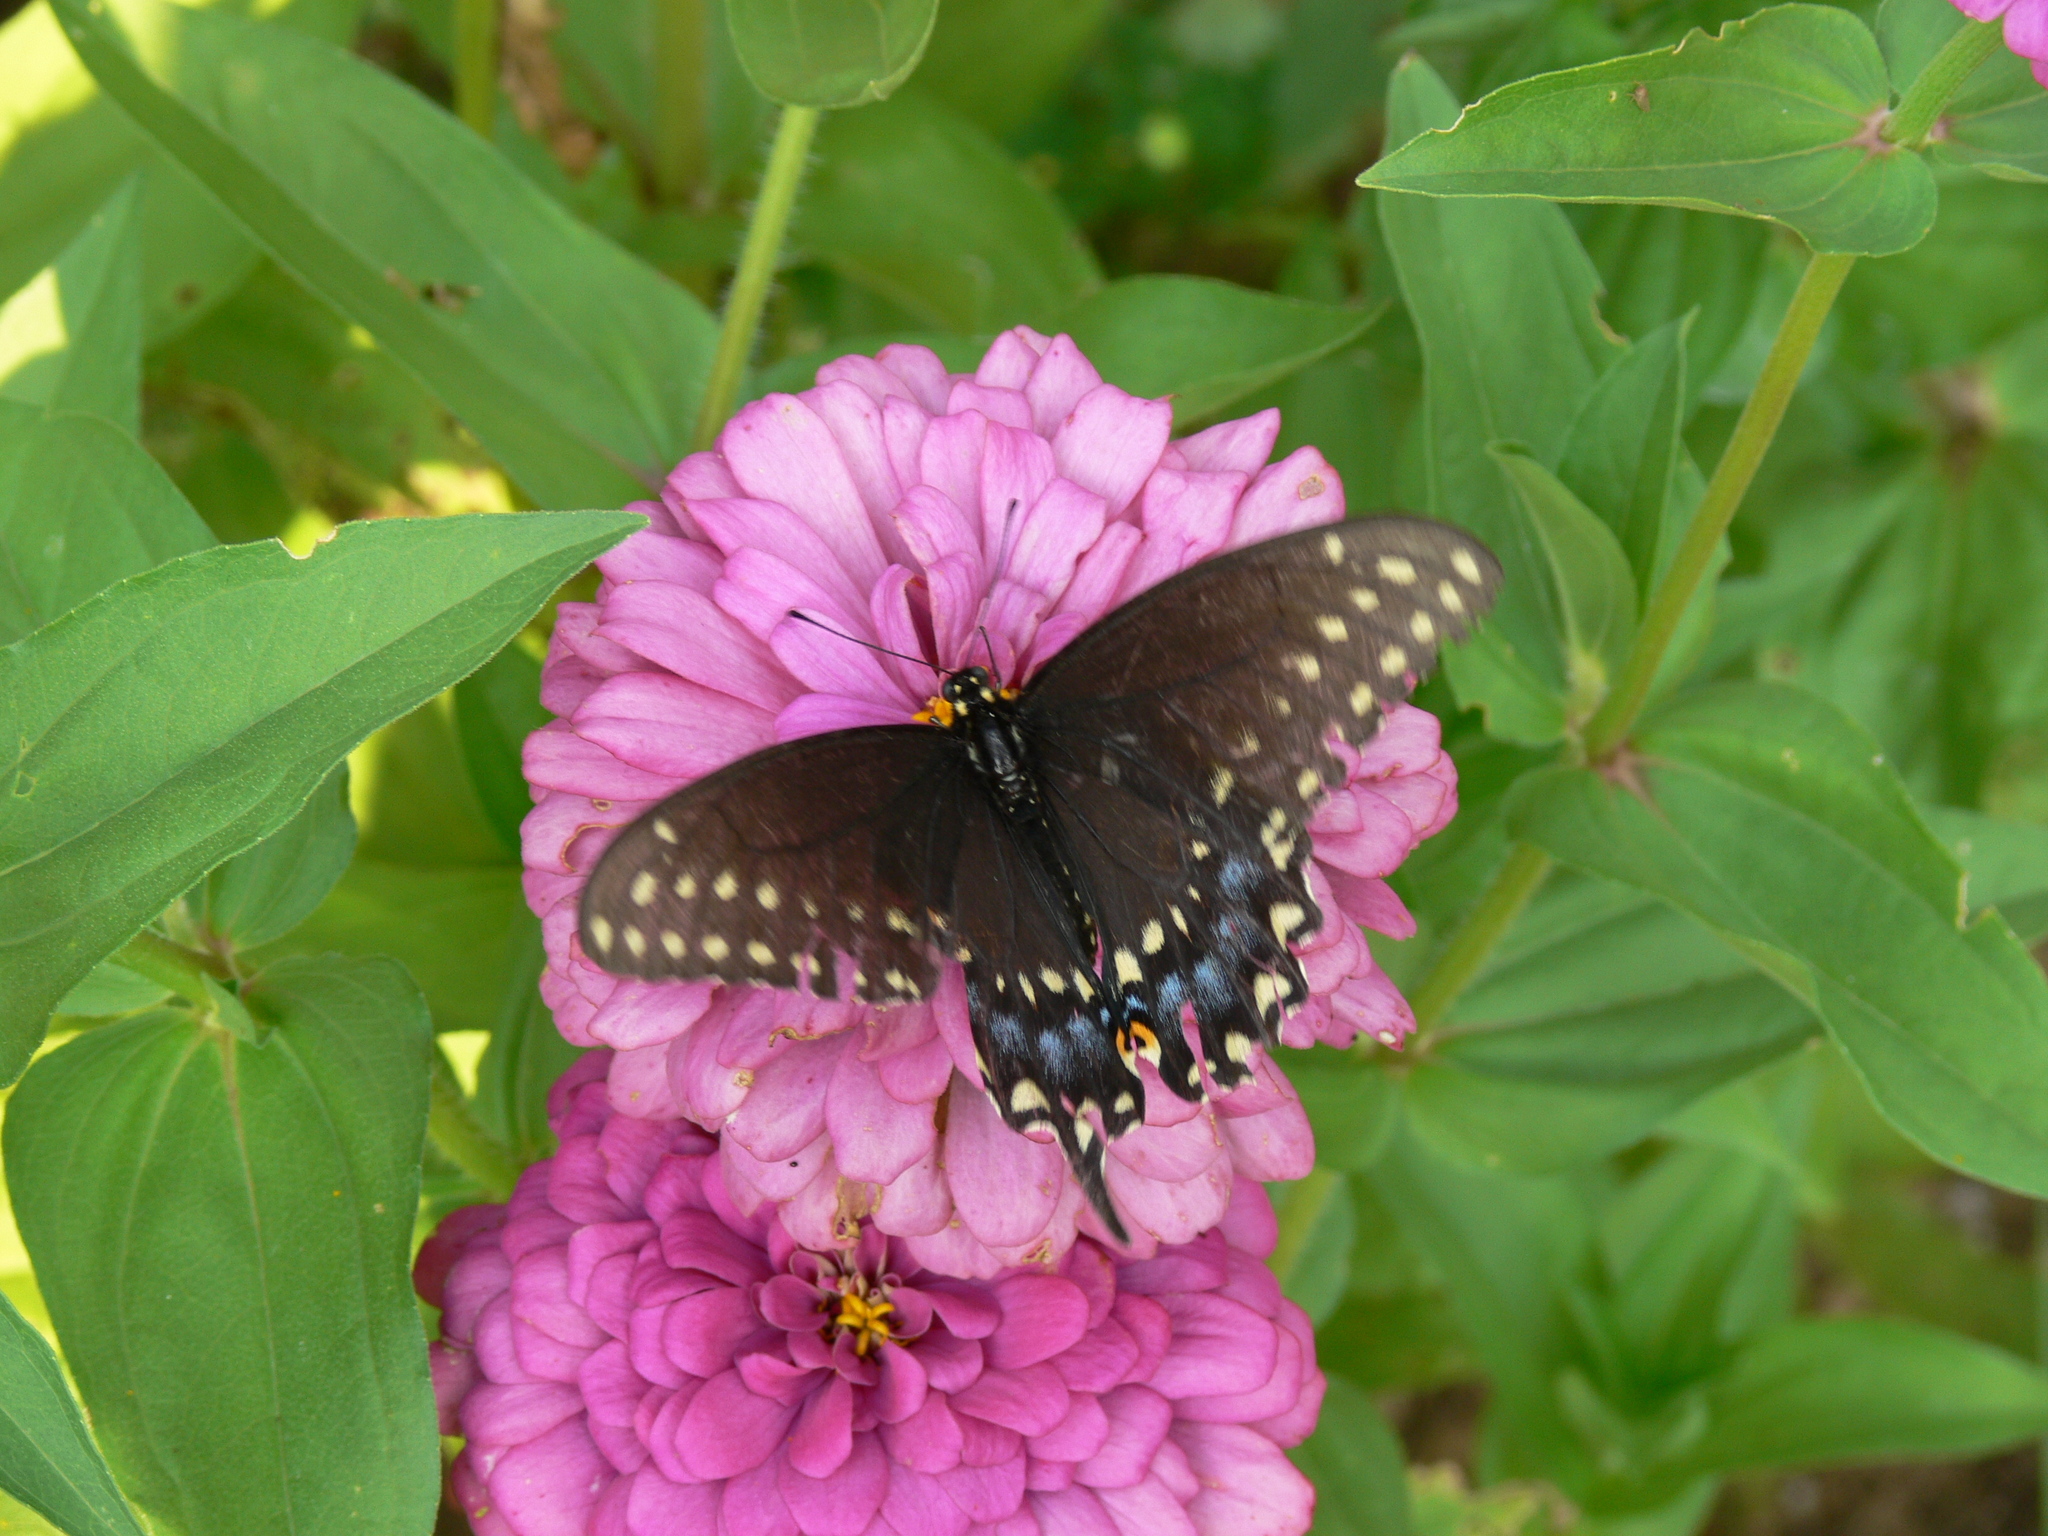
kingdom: Animalia
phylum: Arthropoda
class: Insecta
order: Lepidoptera
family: Papilionidae
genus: Papilio
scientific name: Papilio polyxenes
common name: Black swallowtail
